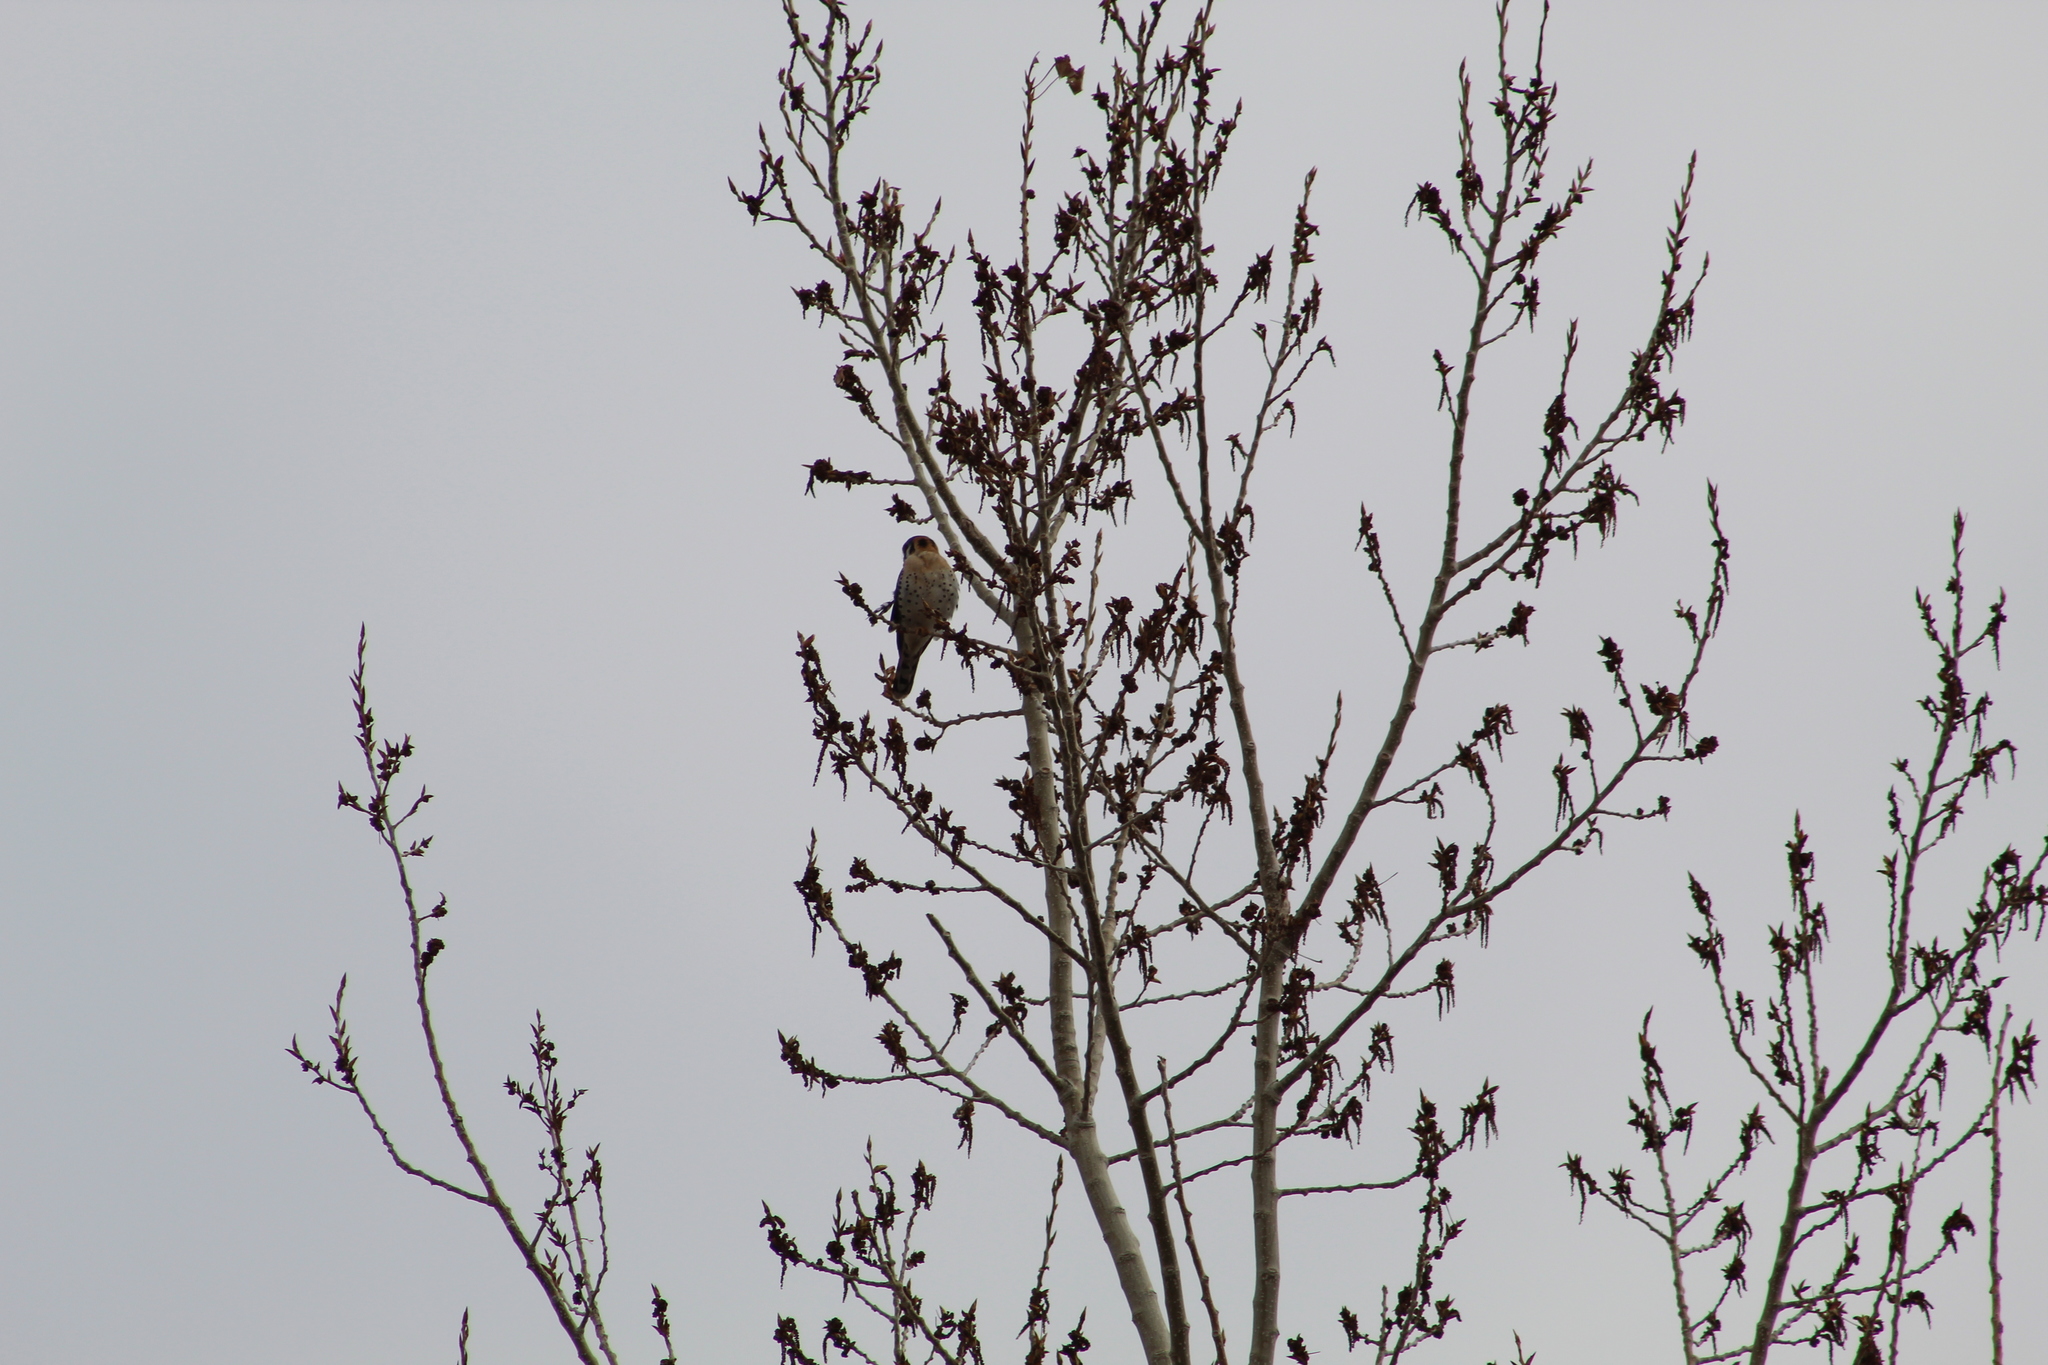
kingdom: Animalia
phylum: Chordata
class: Aves
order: Falconiformes
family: Falconidae
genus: Falco
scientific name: Falco sparverius
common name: American kestrel
